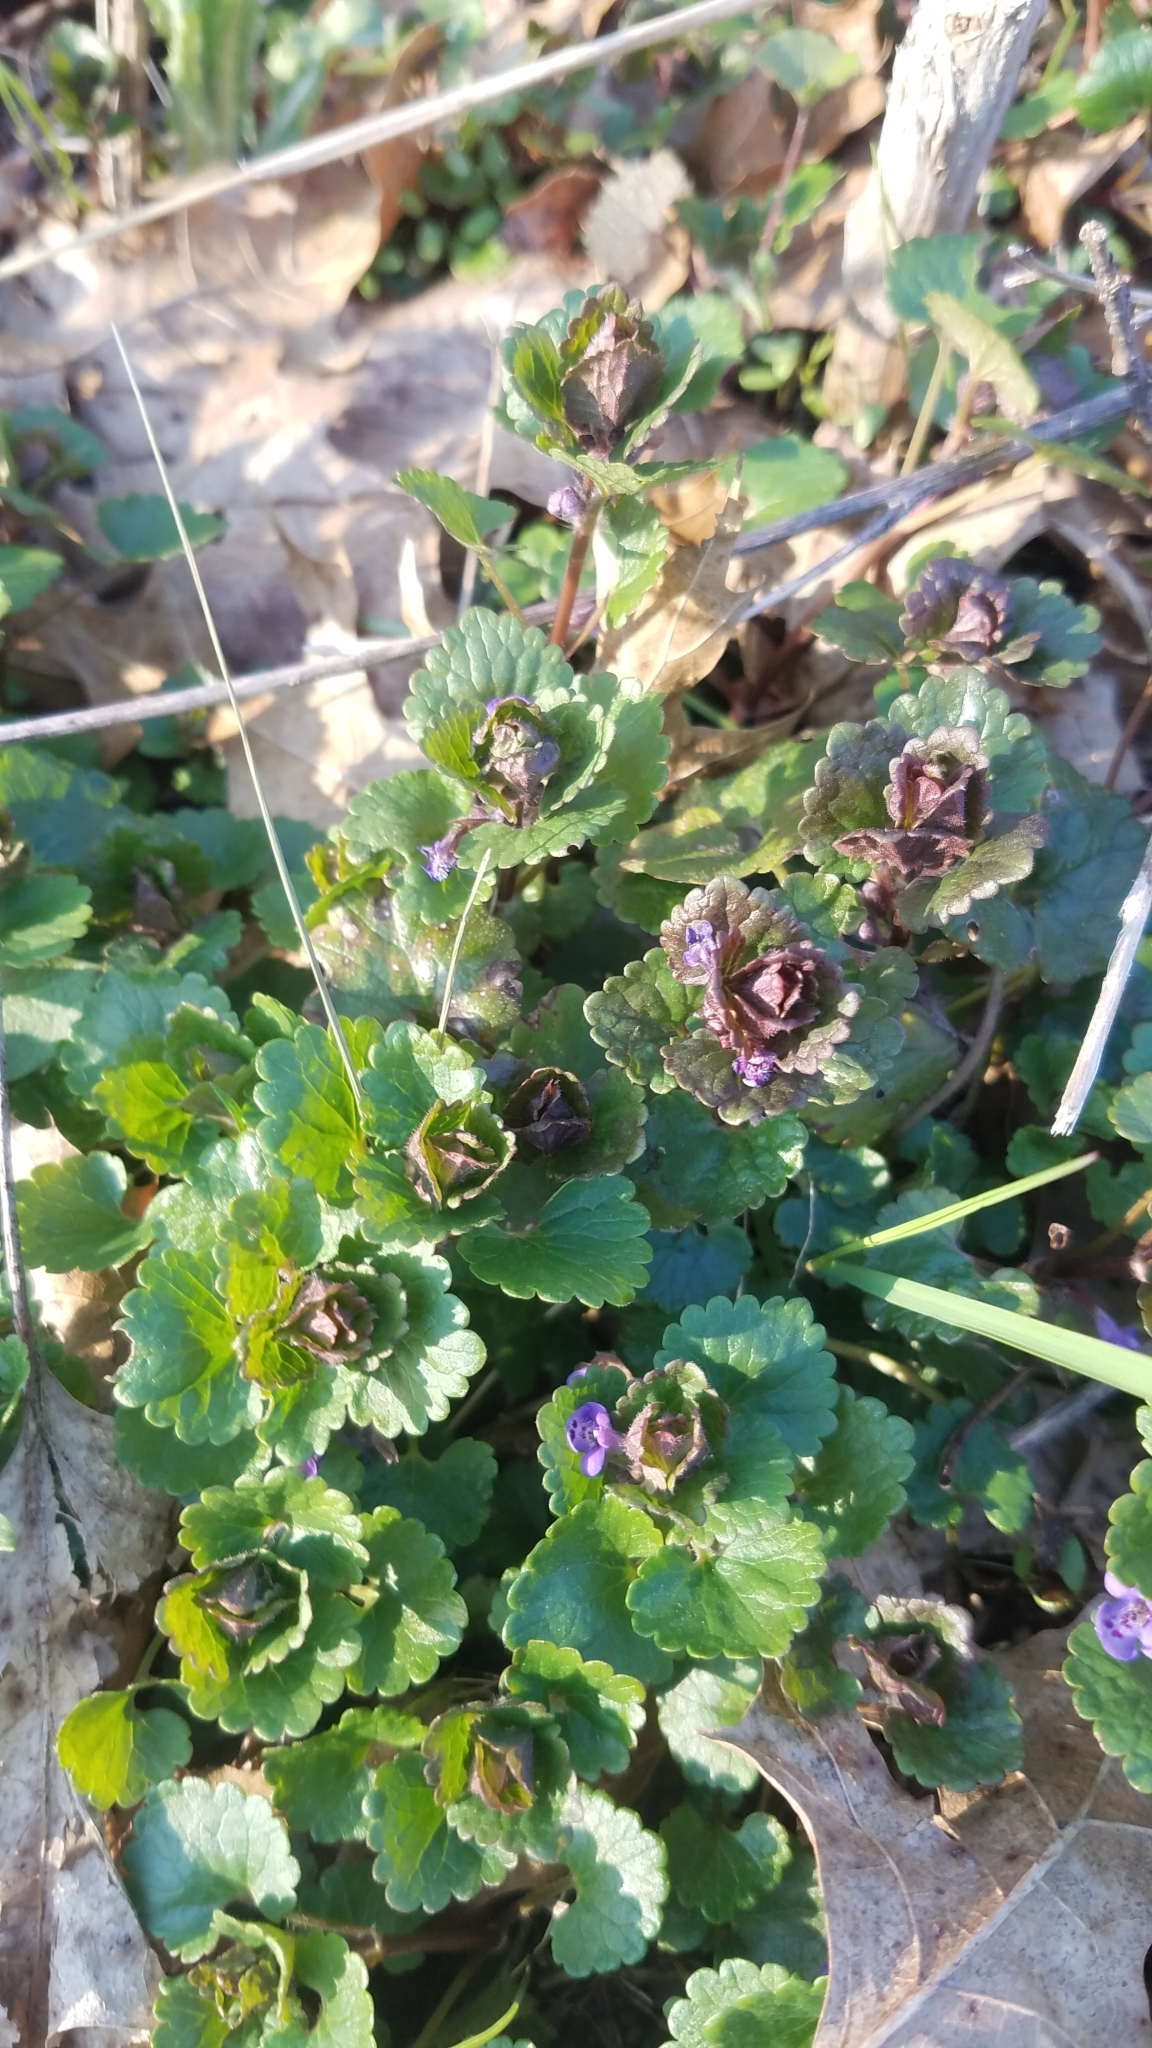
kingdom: Plantae
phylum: Tracheophyta
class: Magnoliopsida
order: Lamiales
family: Lamiaceae
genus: Glechoma
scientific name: Glechoma hederacea
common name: Ground ivy
